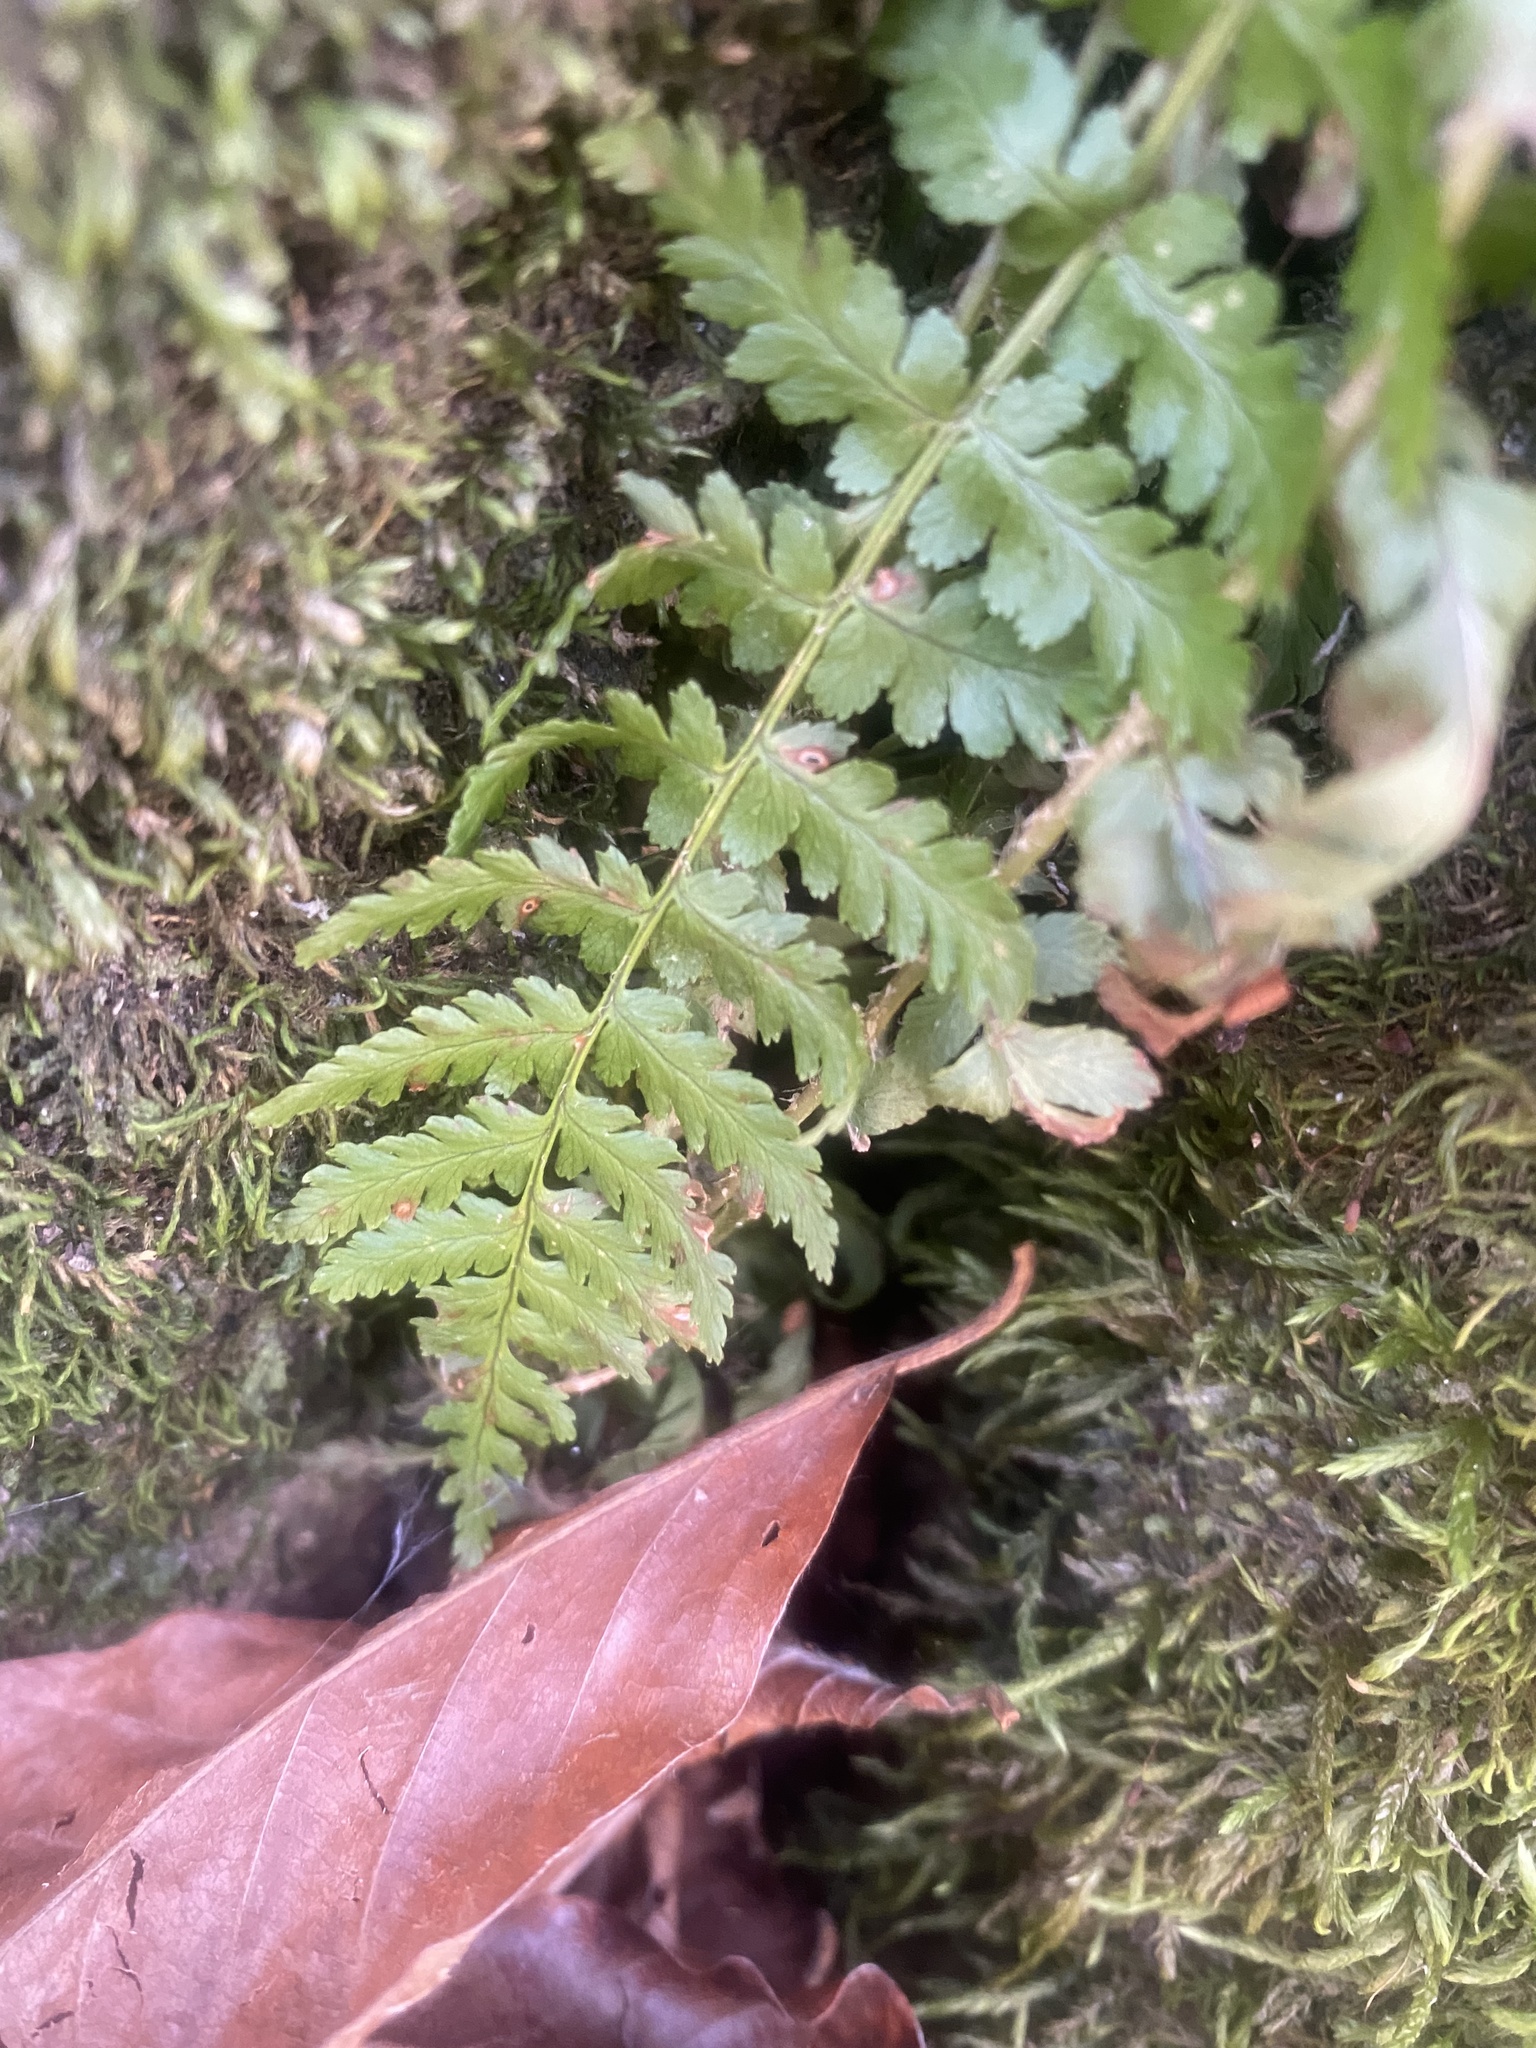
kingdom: Plantae
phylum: Tracheophyta
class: Polypodiopsida
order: Polypodiales
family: Dryopteridaceae
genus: Dryopteris
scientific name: Dryopteris filix-mas
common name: Male fern
